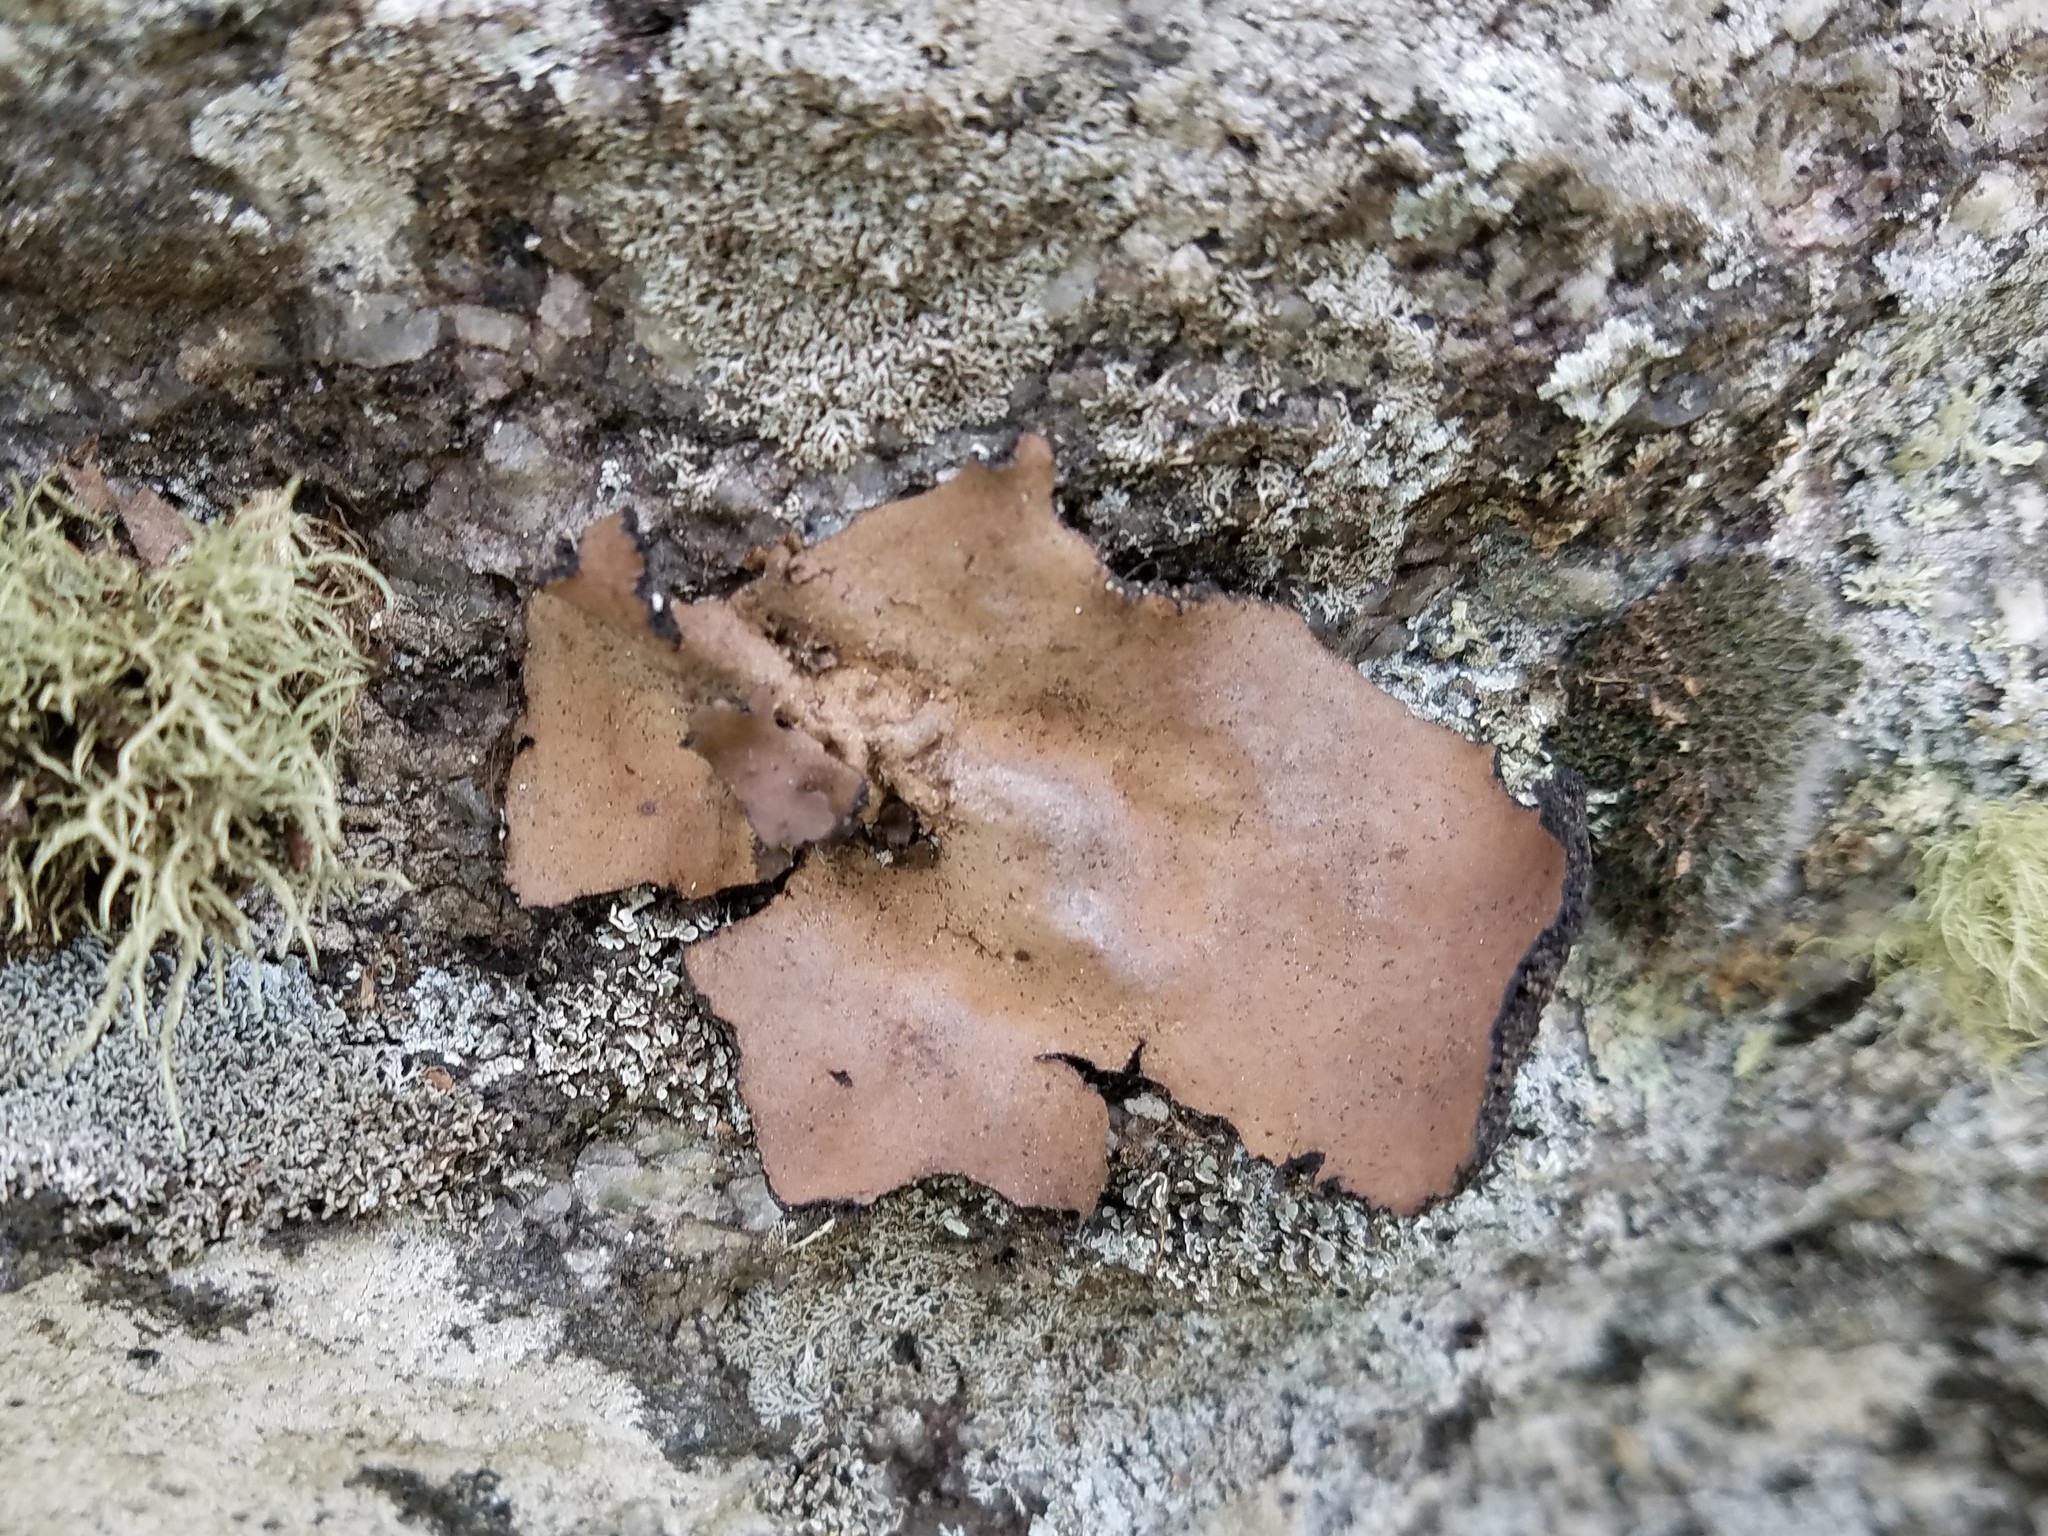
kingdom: Fungi
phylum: Ascomycota
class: Lecanoromycetes
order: Umbilicariales
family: Umbilicariaceae
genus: Umbilicaria
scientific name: Umbilicaria mammulata
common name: Smooth rock tripe
